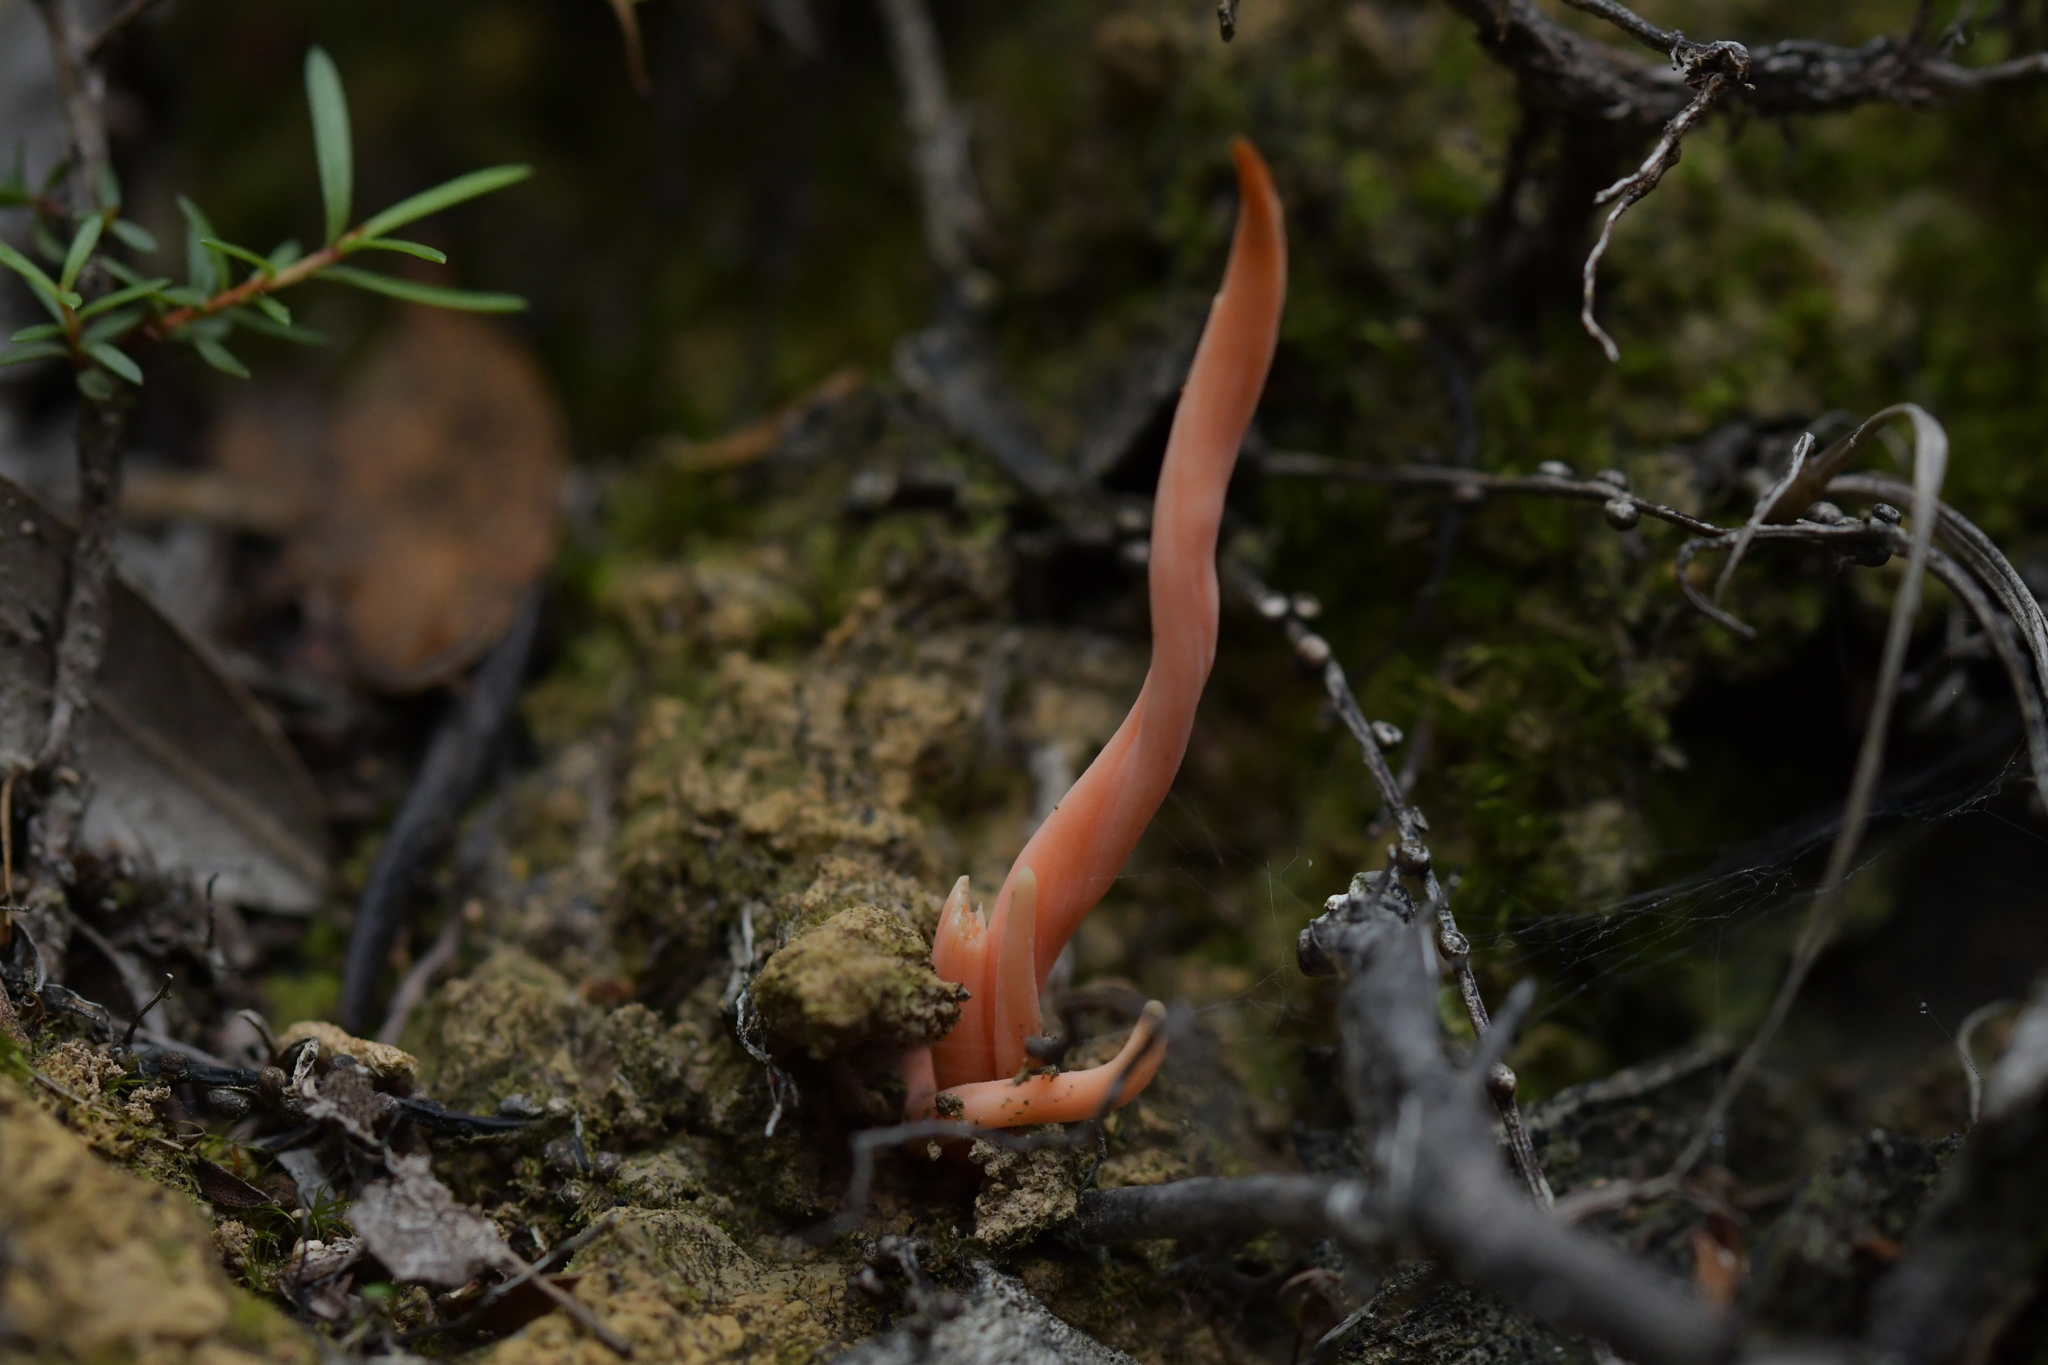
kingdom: Fungi
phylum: Basidiomycota
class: Agaricomycetes
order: Agaricales
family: Clavariaceae
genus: Clavulinopsis
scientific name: Clavulinopsis sulcata
